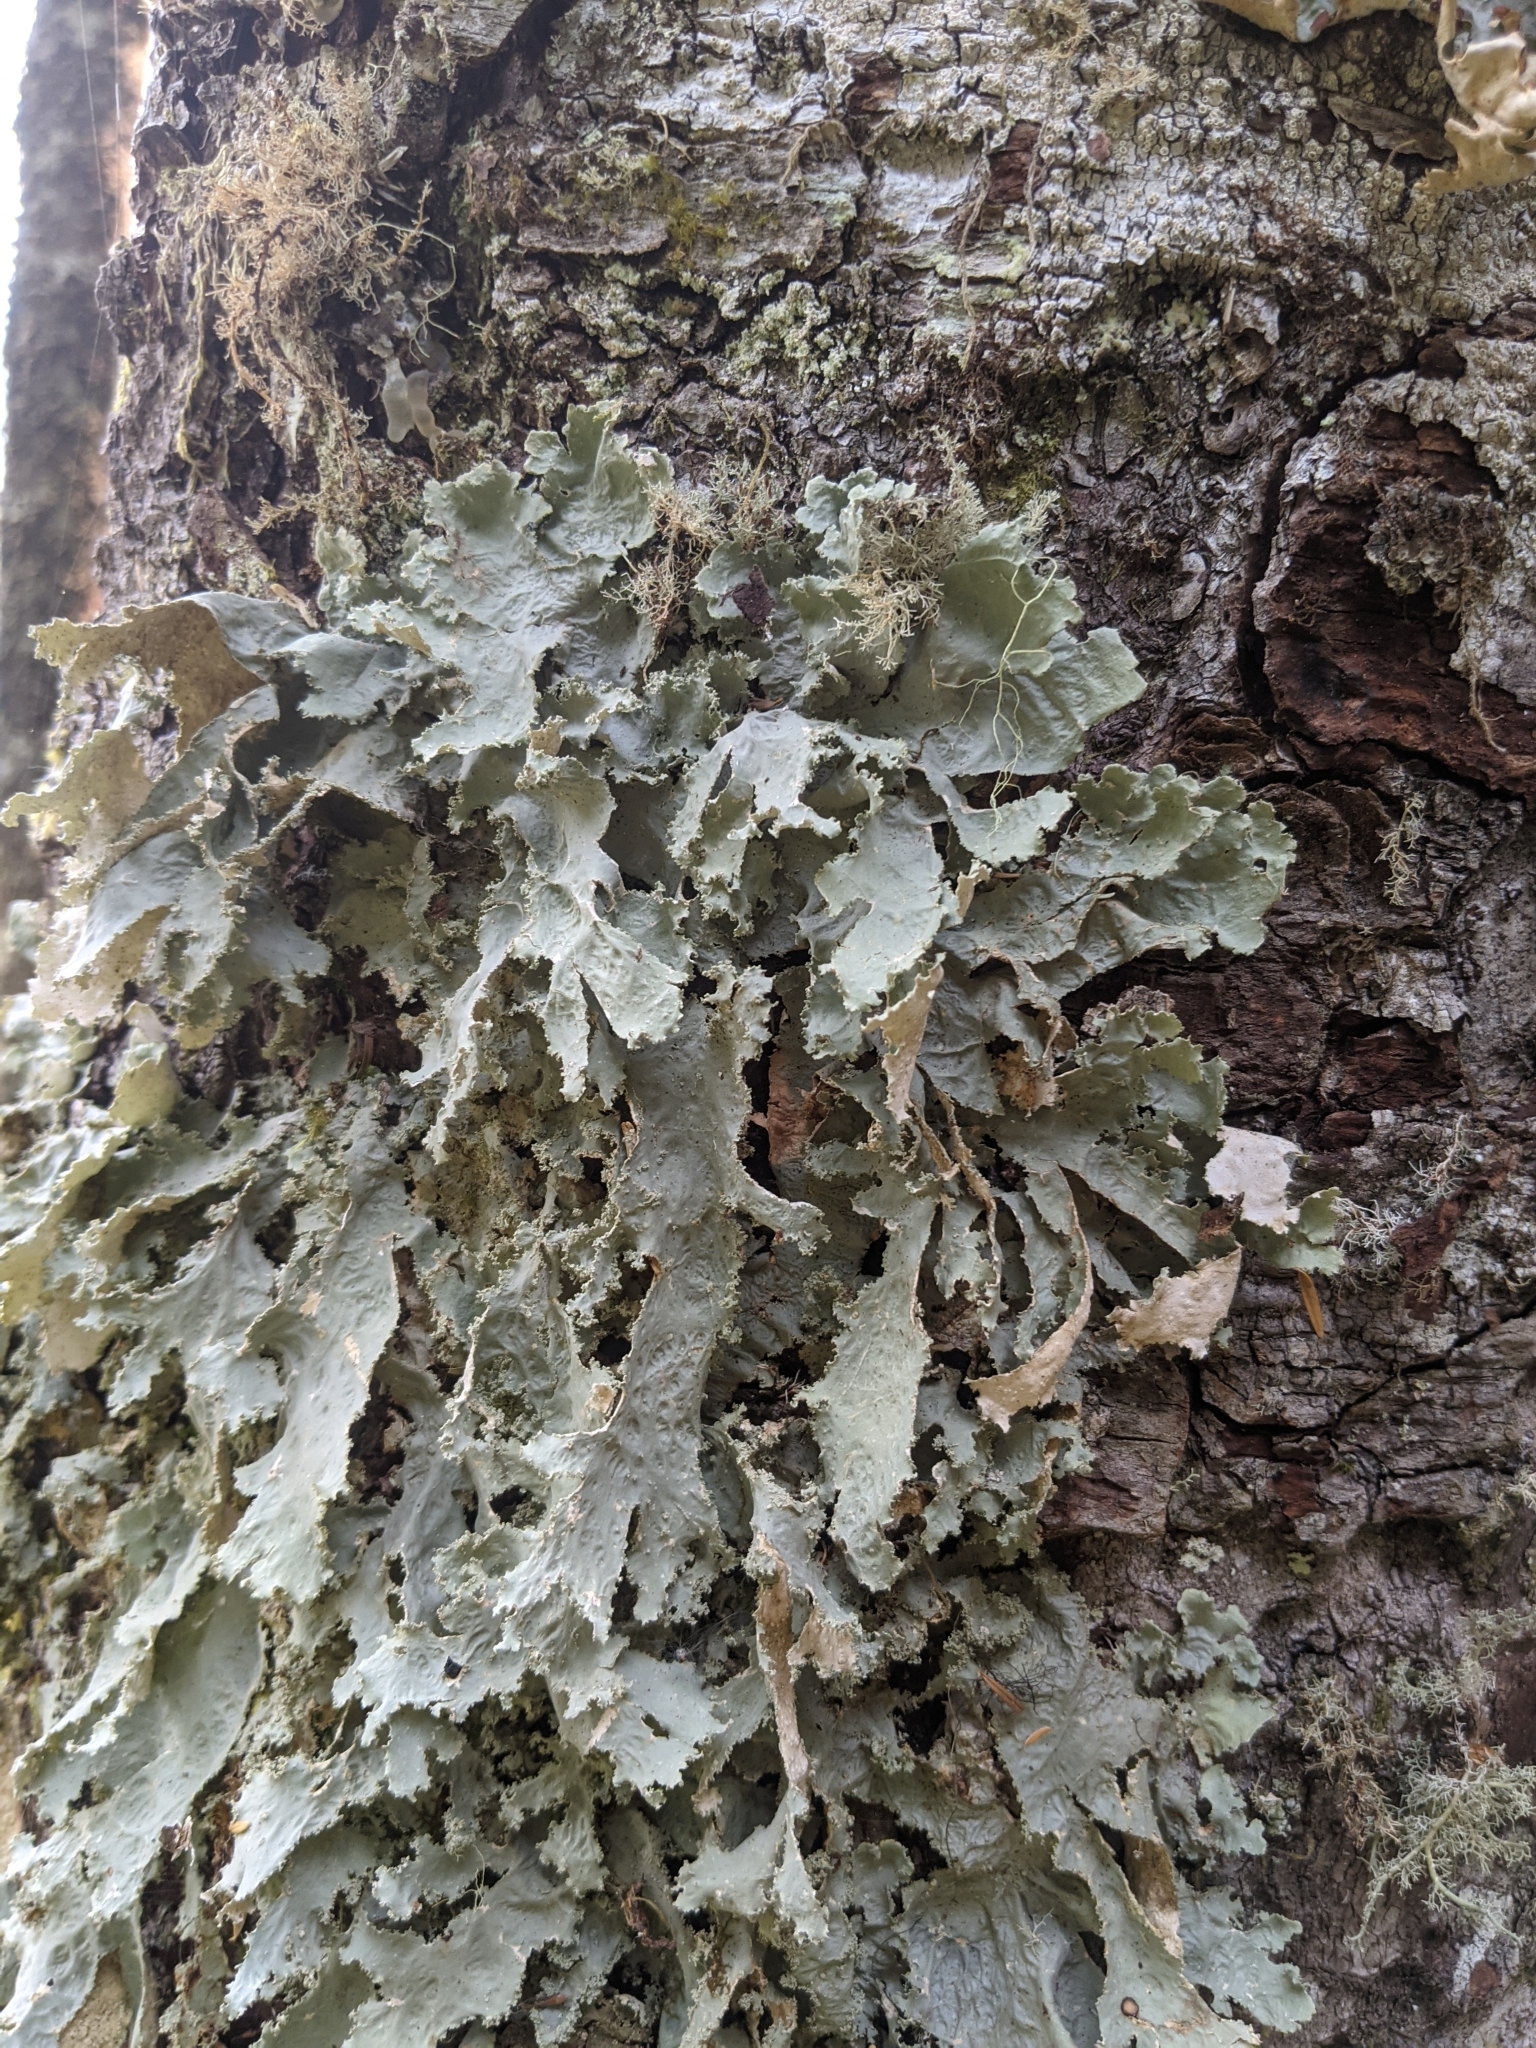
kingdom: Fungi
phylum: Ascomycota
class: Lecanoromycetes
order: Peltigerales
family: Lobariaceae
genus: Pseudocyphellaria
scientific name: Pseudocyphellaria rainierensis
